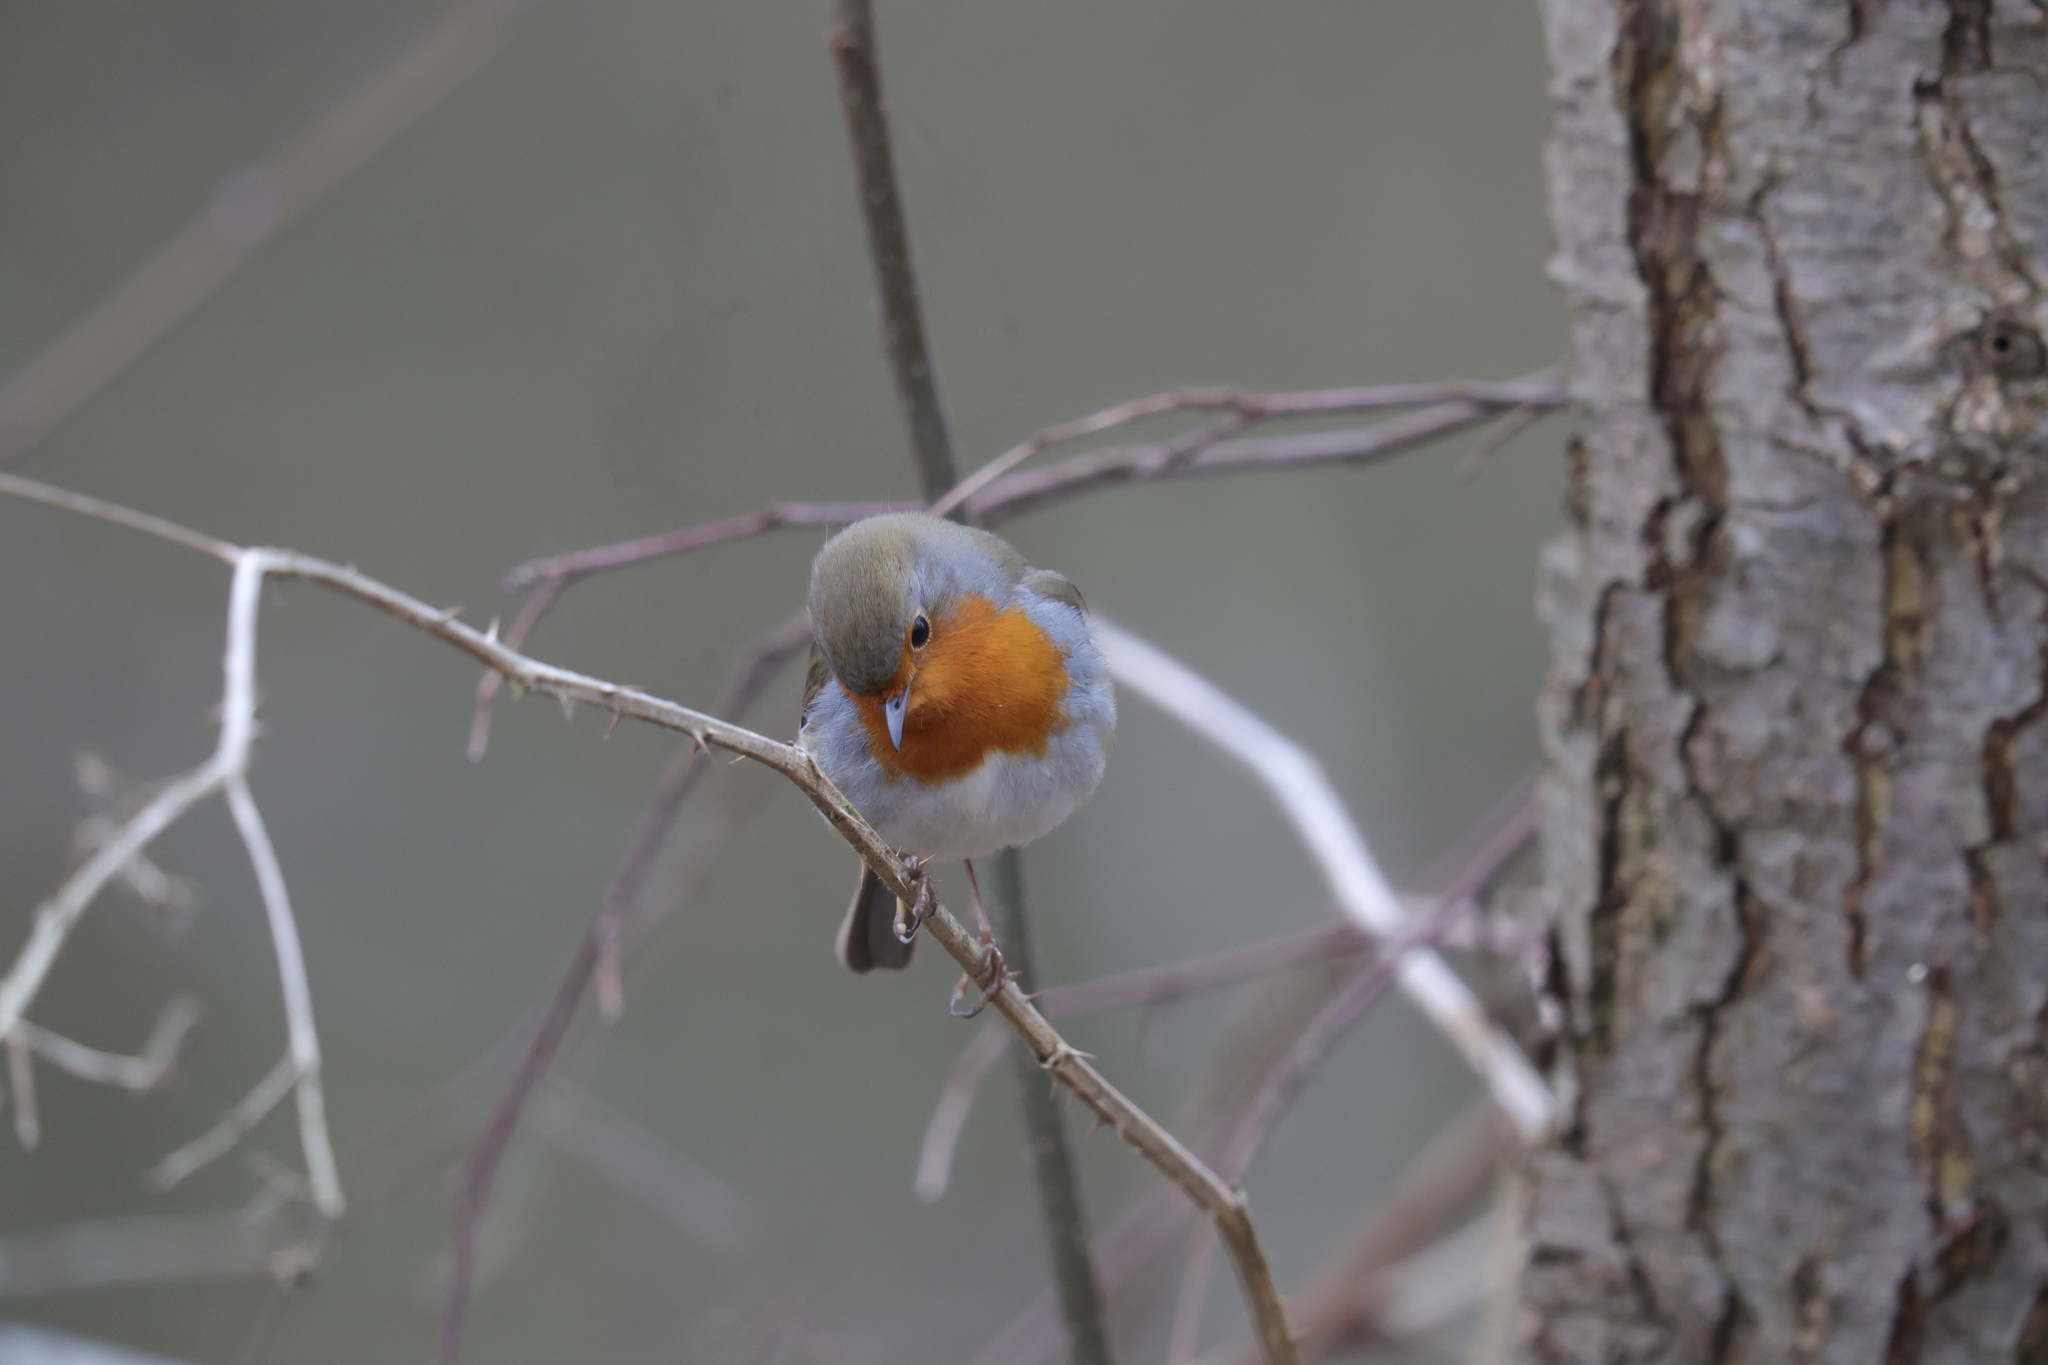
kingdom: Animalia
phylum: Chordata
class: Aves
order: Passeriformes
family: Muscicapidae
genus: Erithacus
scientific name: Erithacus rubecula
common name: European robin
